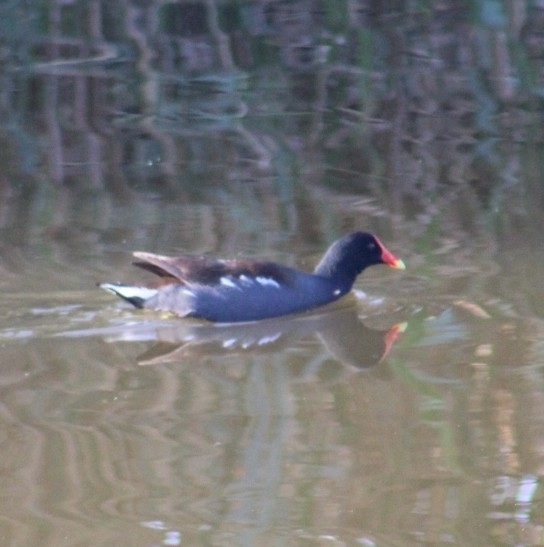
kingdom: Animalia
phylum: Chordata
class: Aves
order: Gruiformes
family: Rallidae
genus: Gallinula
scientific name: Gallinula chloropus
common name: Common moorhen
